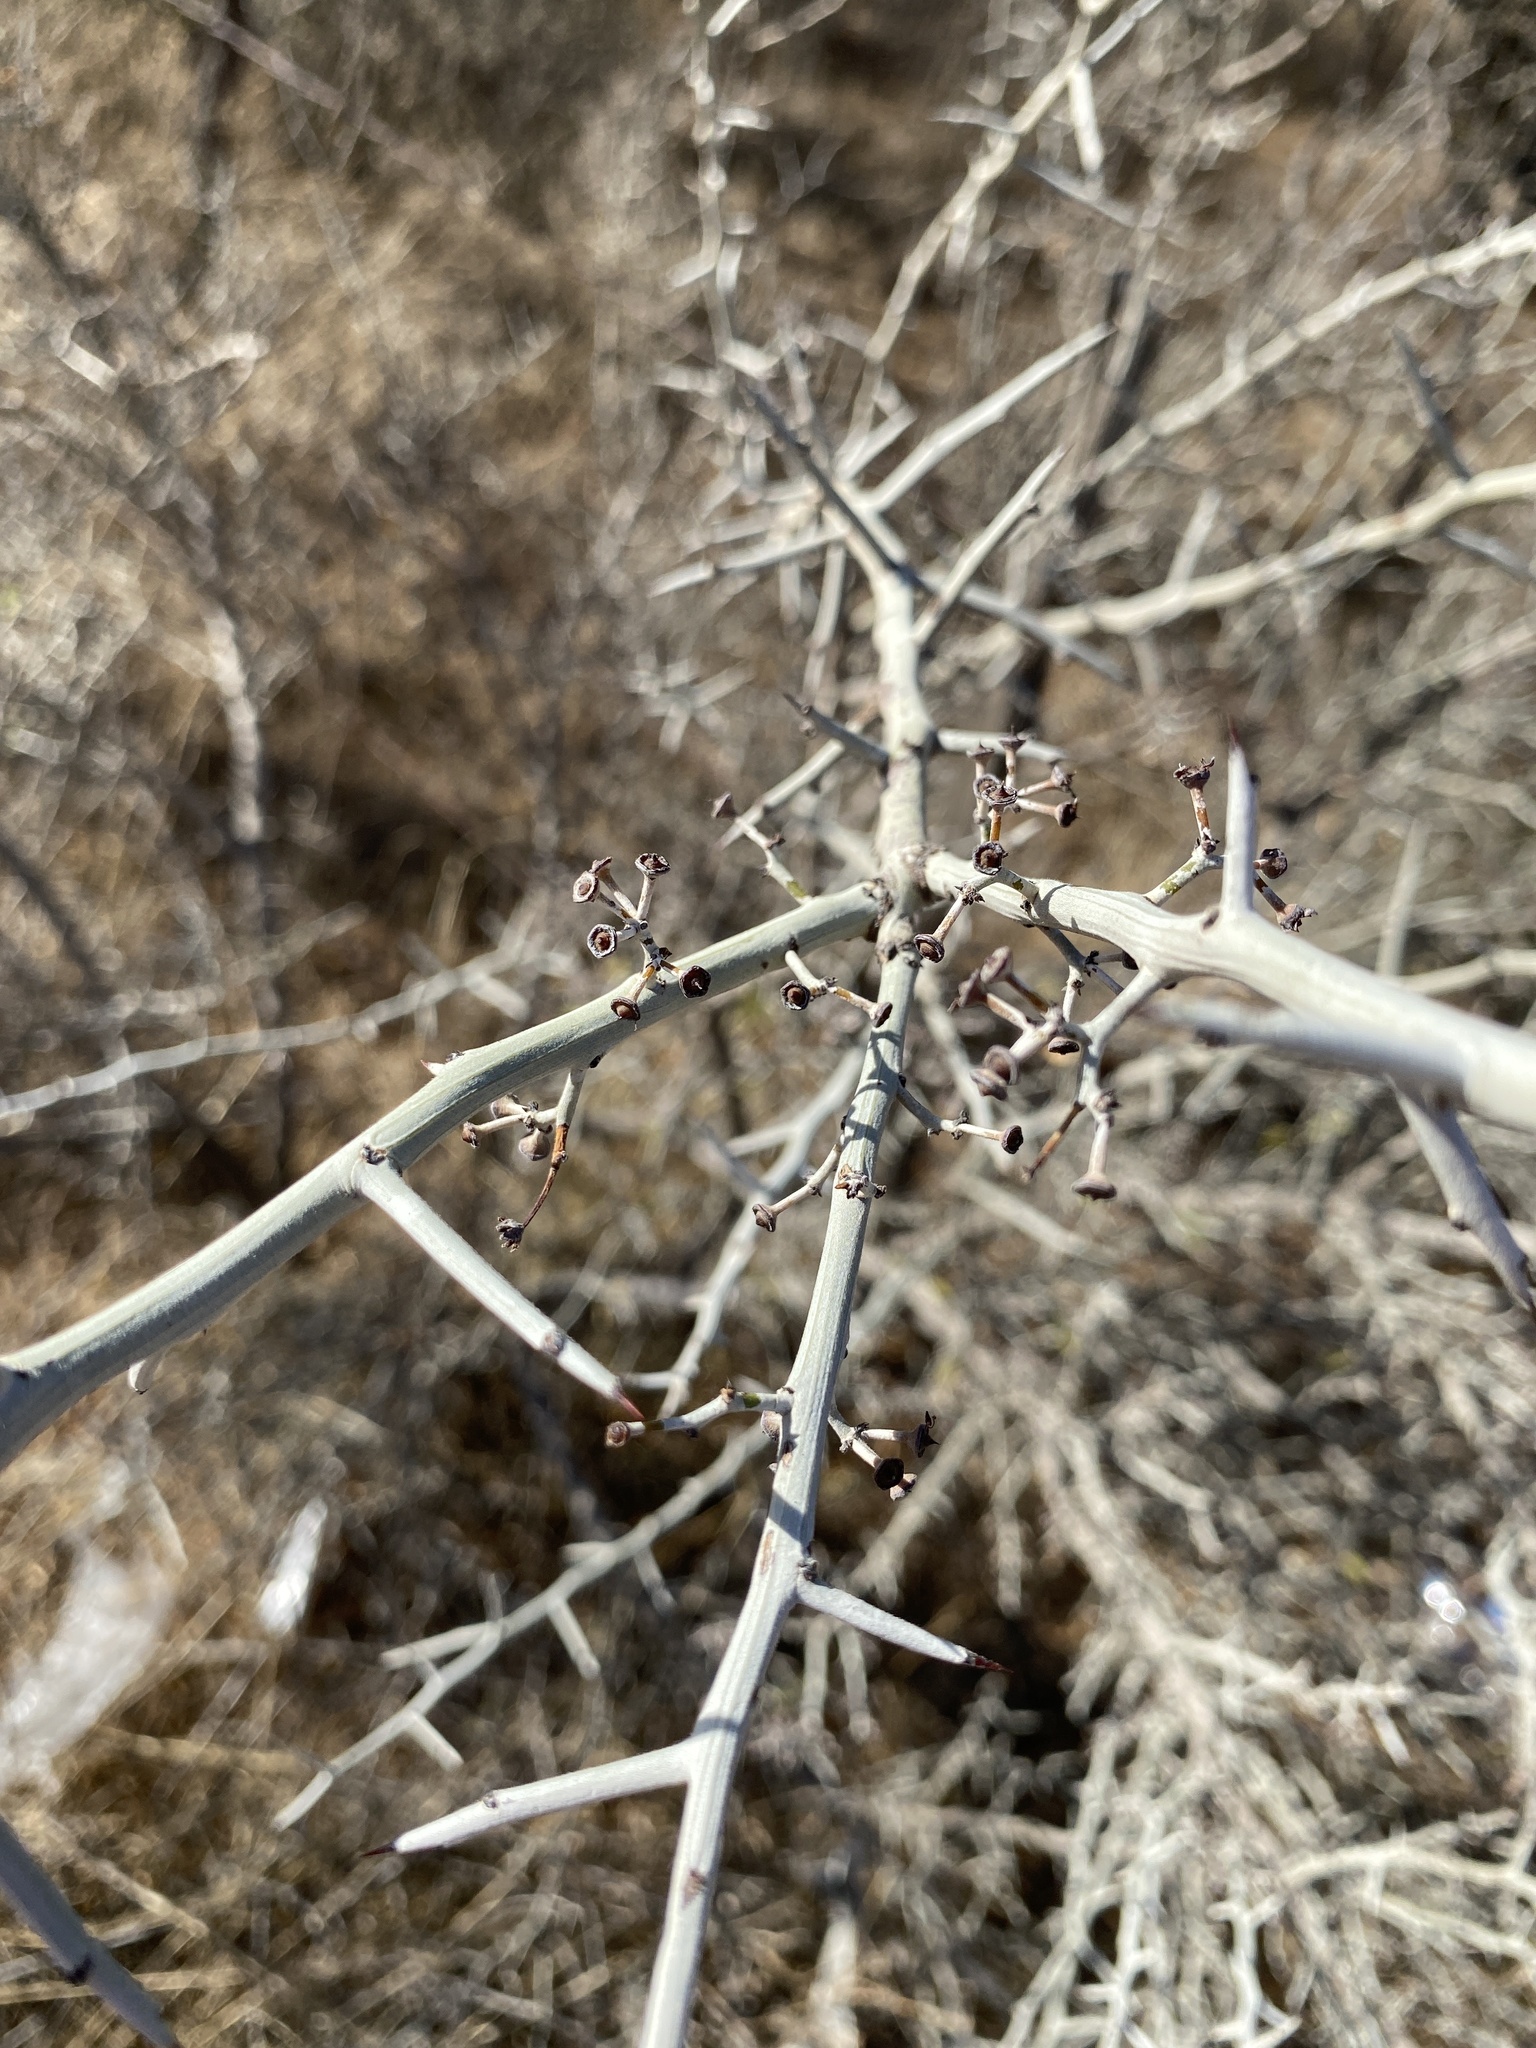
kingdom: Plantae
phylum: Tracheophyta
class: Magnoliopsida
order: Rosales
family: Rhamnaceae
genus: Sarcomphalus
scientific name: Sarcomphalus obtusifolius
